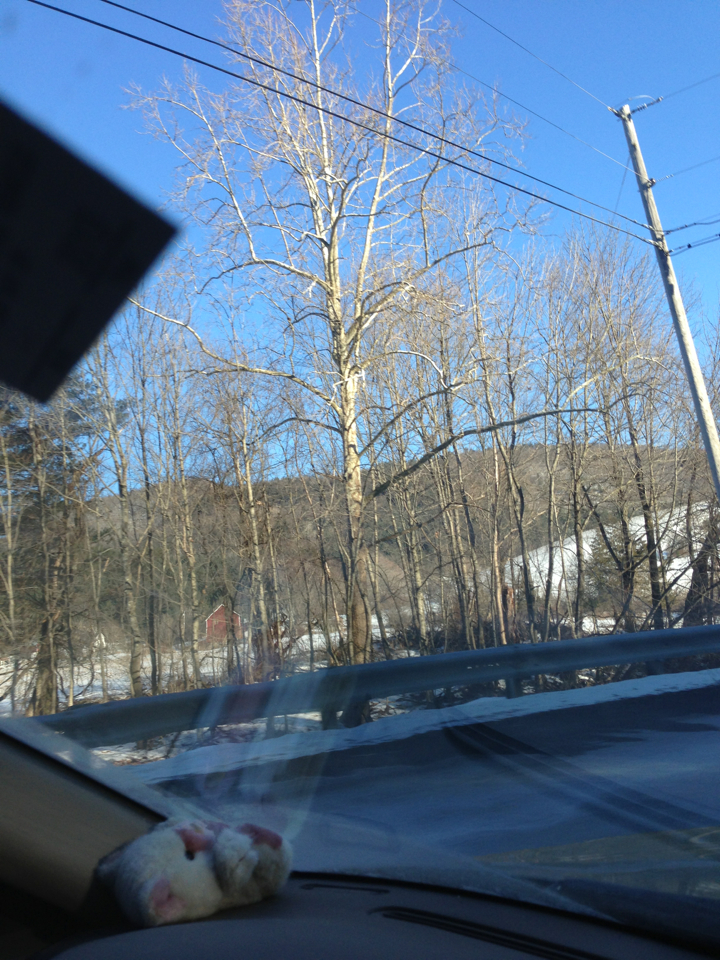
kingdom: Plantae
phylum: Tracheophyta
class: Magnoliopsida
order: Proteales
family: Platanaceae
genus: Platanus
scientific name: Platanus occidentalis
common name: American sycamore
